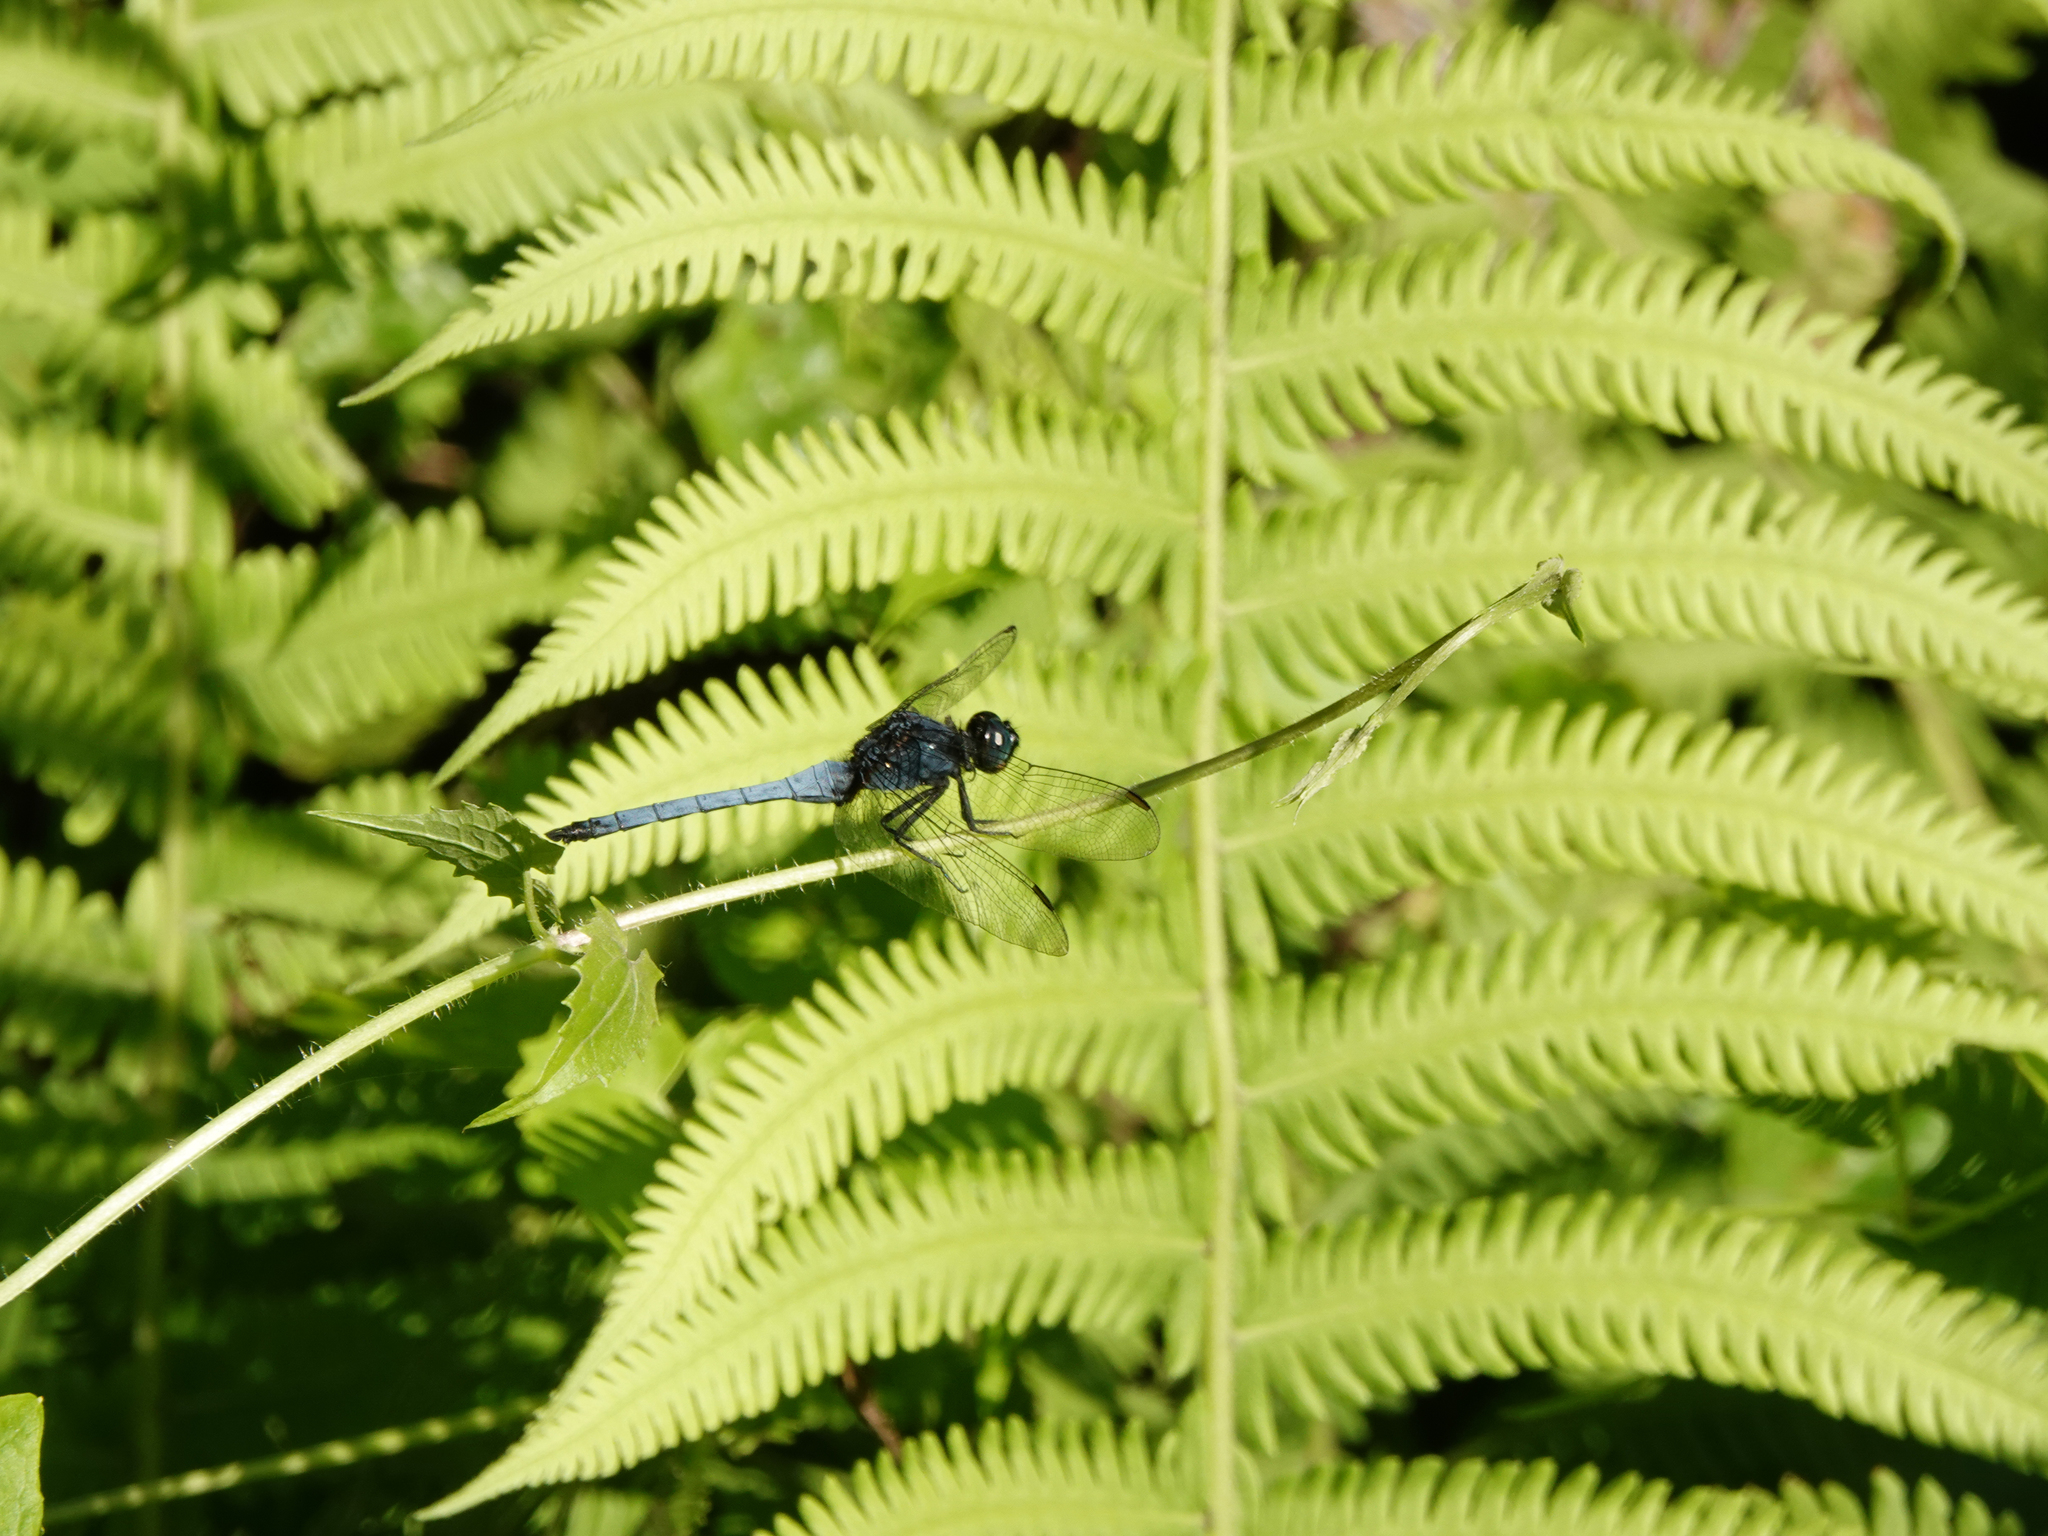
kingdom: Animalia
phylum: Arthropoda
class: Insecta
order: Odonata
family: Libellulidae
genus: Orthetrum
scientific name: Orthetrum glaucum
